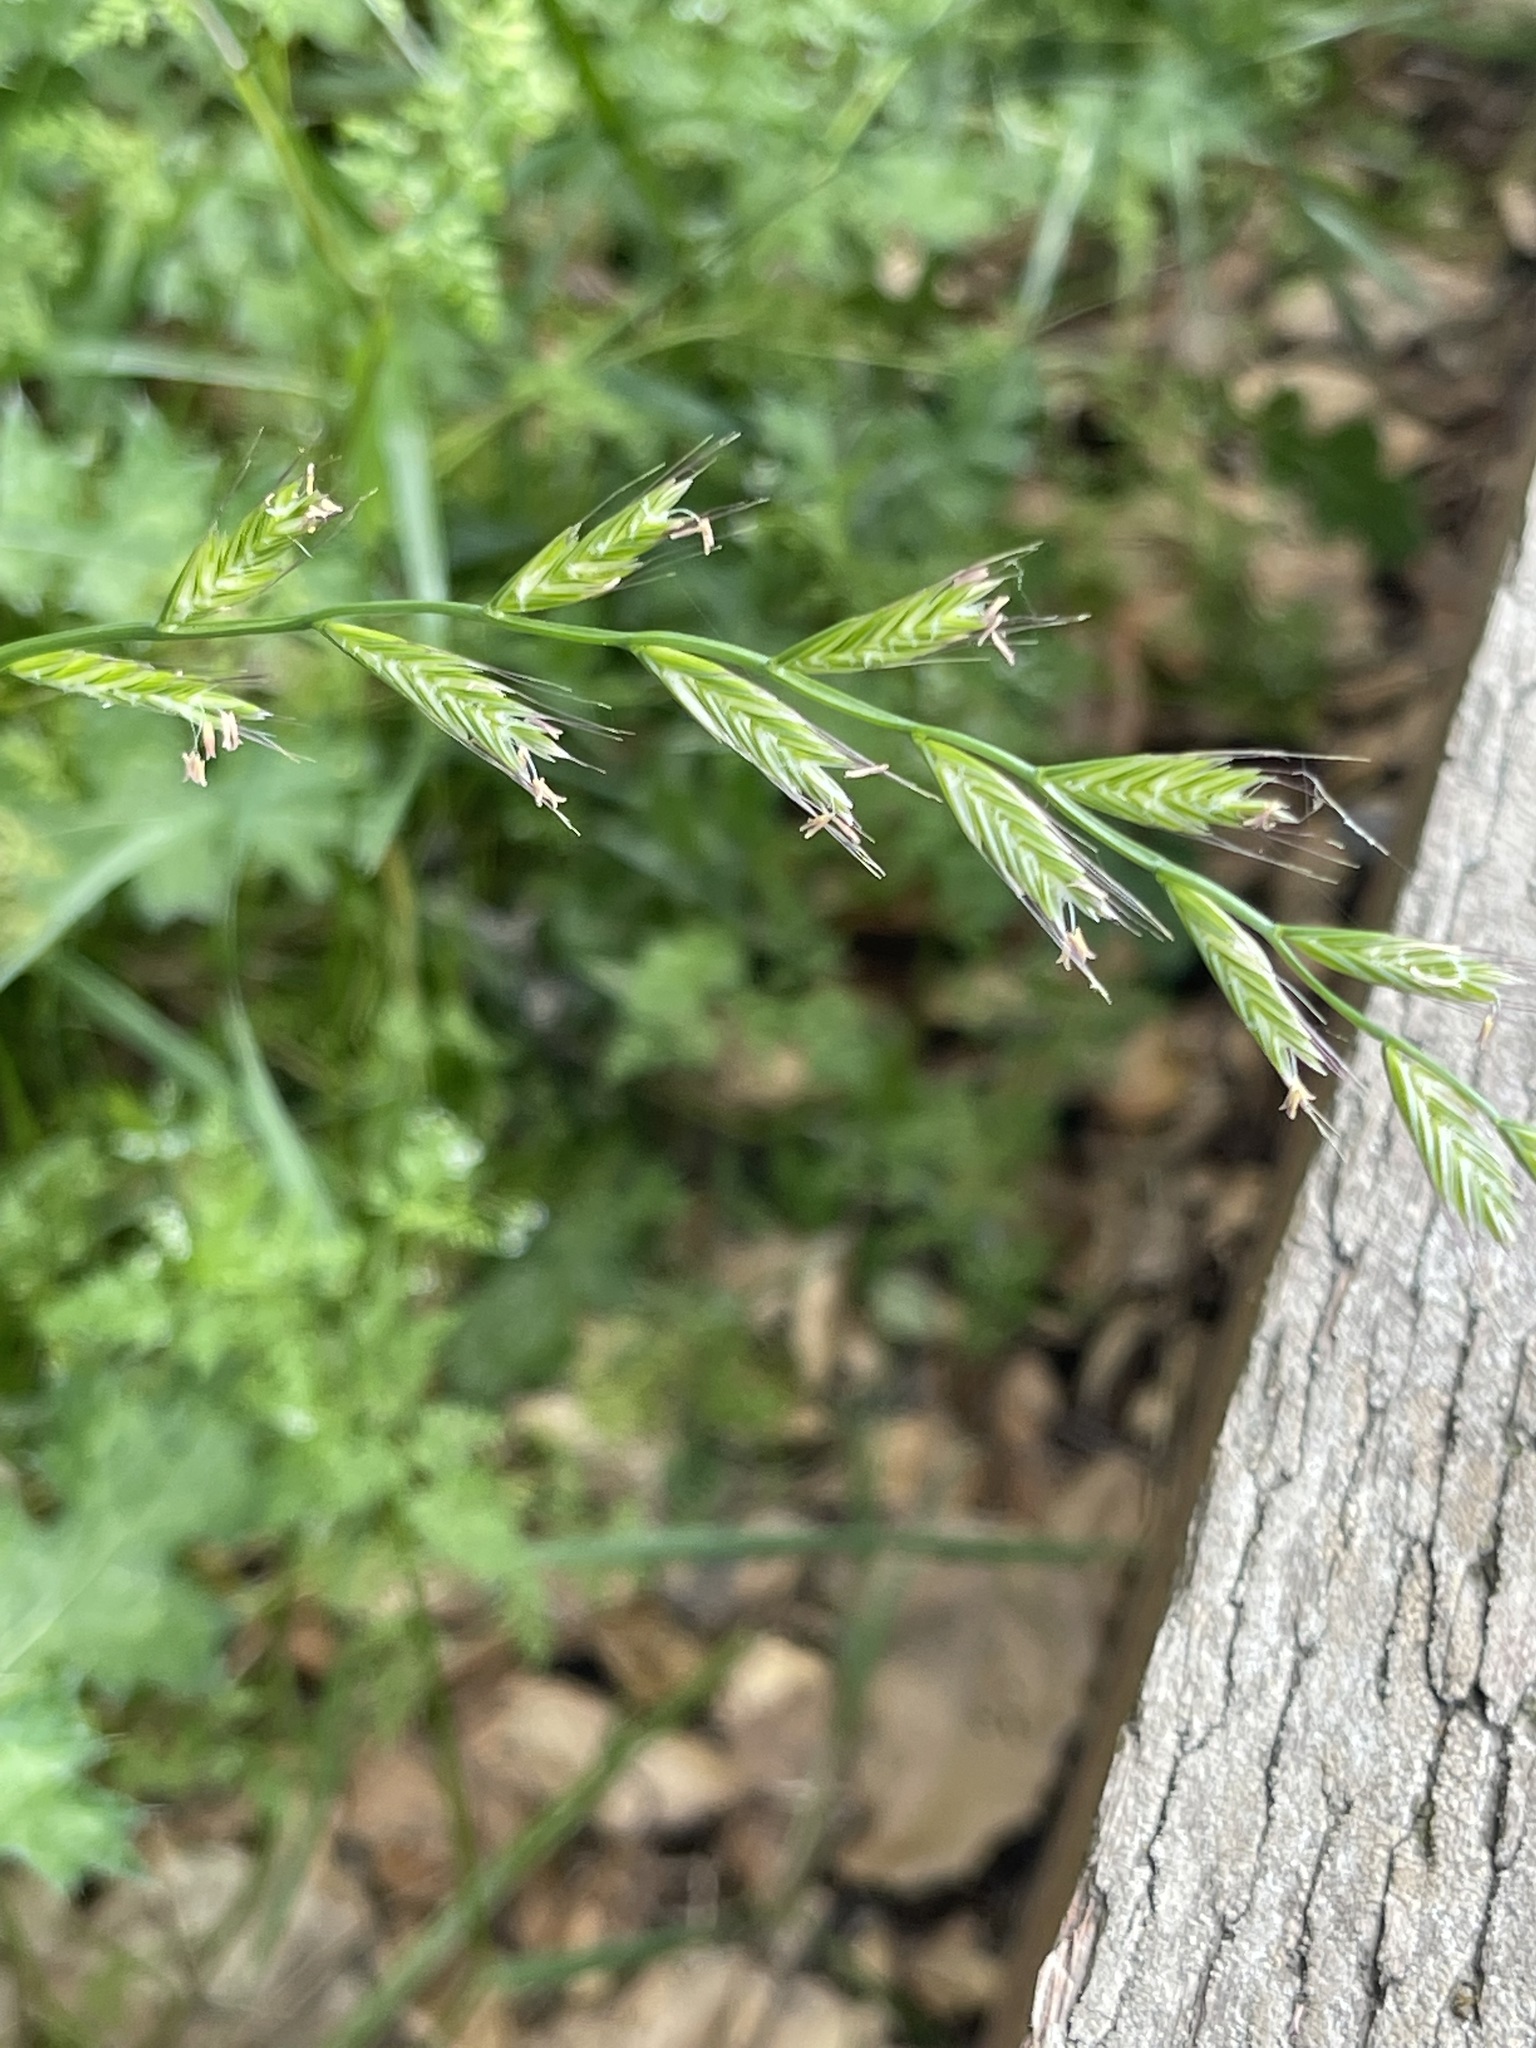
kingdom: Plantae
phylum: Tracheophyta
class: Liliopsida
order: Poales
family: Poaceae
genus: Lolium
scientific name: Lolium multiflorum
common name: Annual ryegrass
